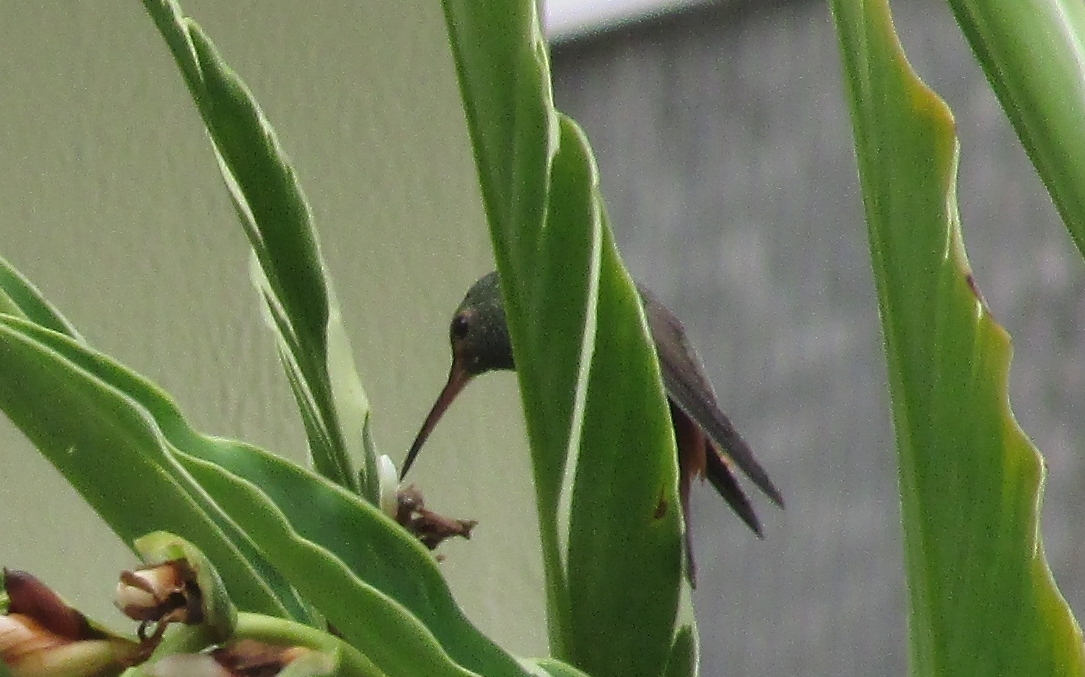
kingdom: Animalia
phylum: Chordata
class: Aves
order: Apodiformes
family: Trochilidae
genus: Amazilia
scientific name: Amazilia tzacatl
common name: Rufous-tailed hummingbird
